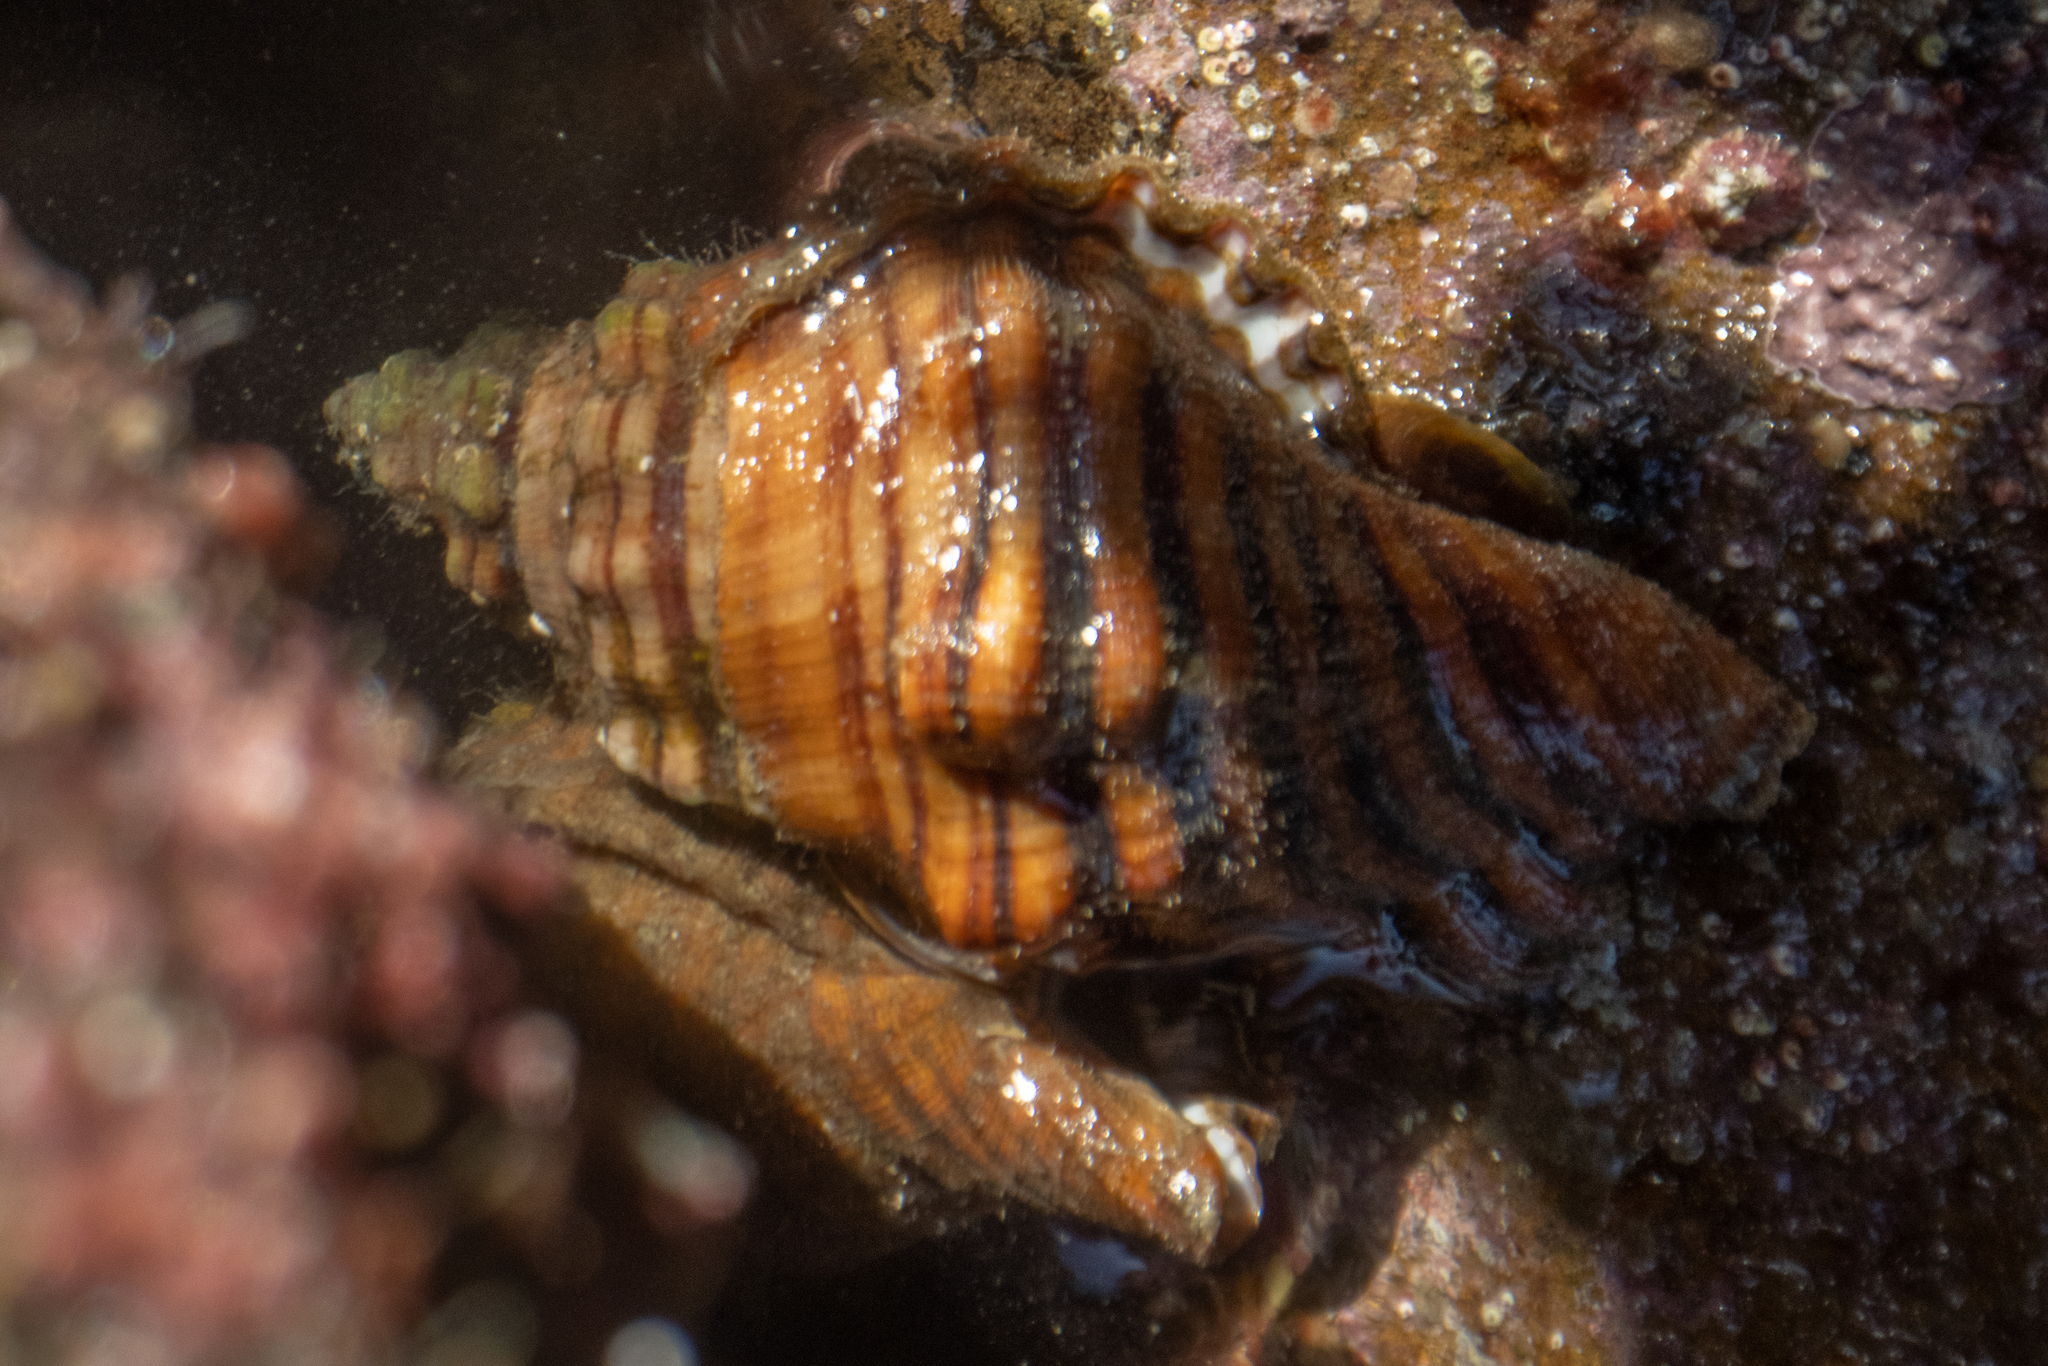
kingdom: Animalia
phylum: Mollusca
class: Gastropoda
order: Littorinimorpha
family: Cymatiidae
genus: Cabestana
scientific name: Cabestana spengleri
